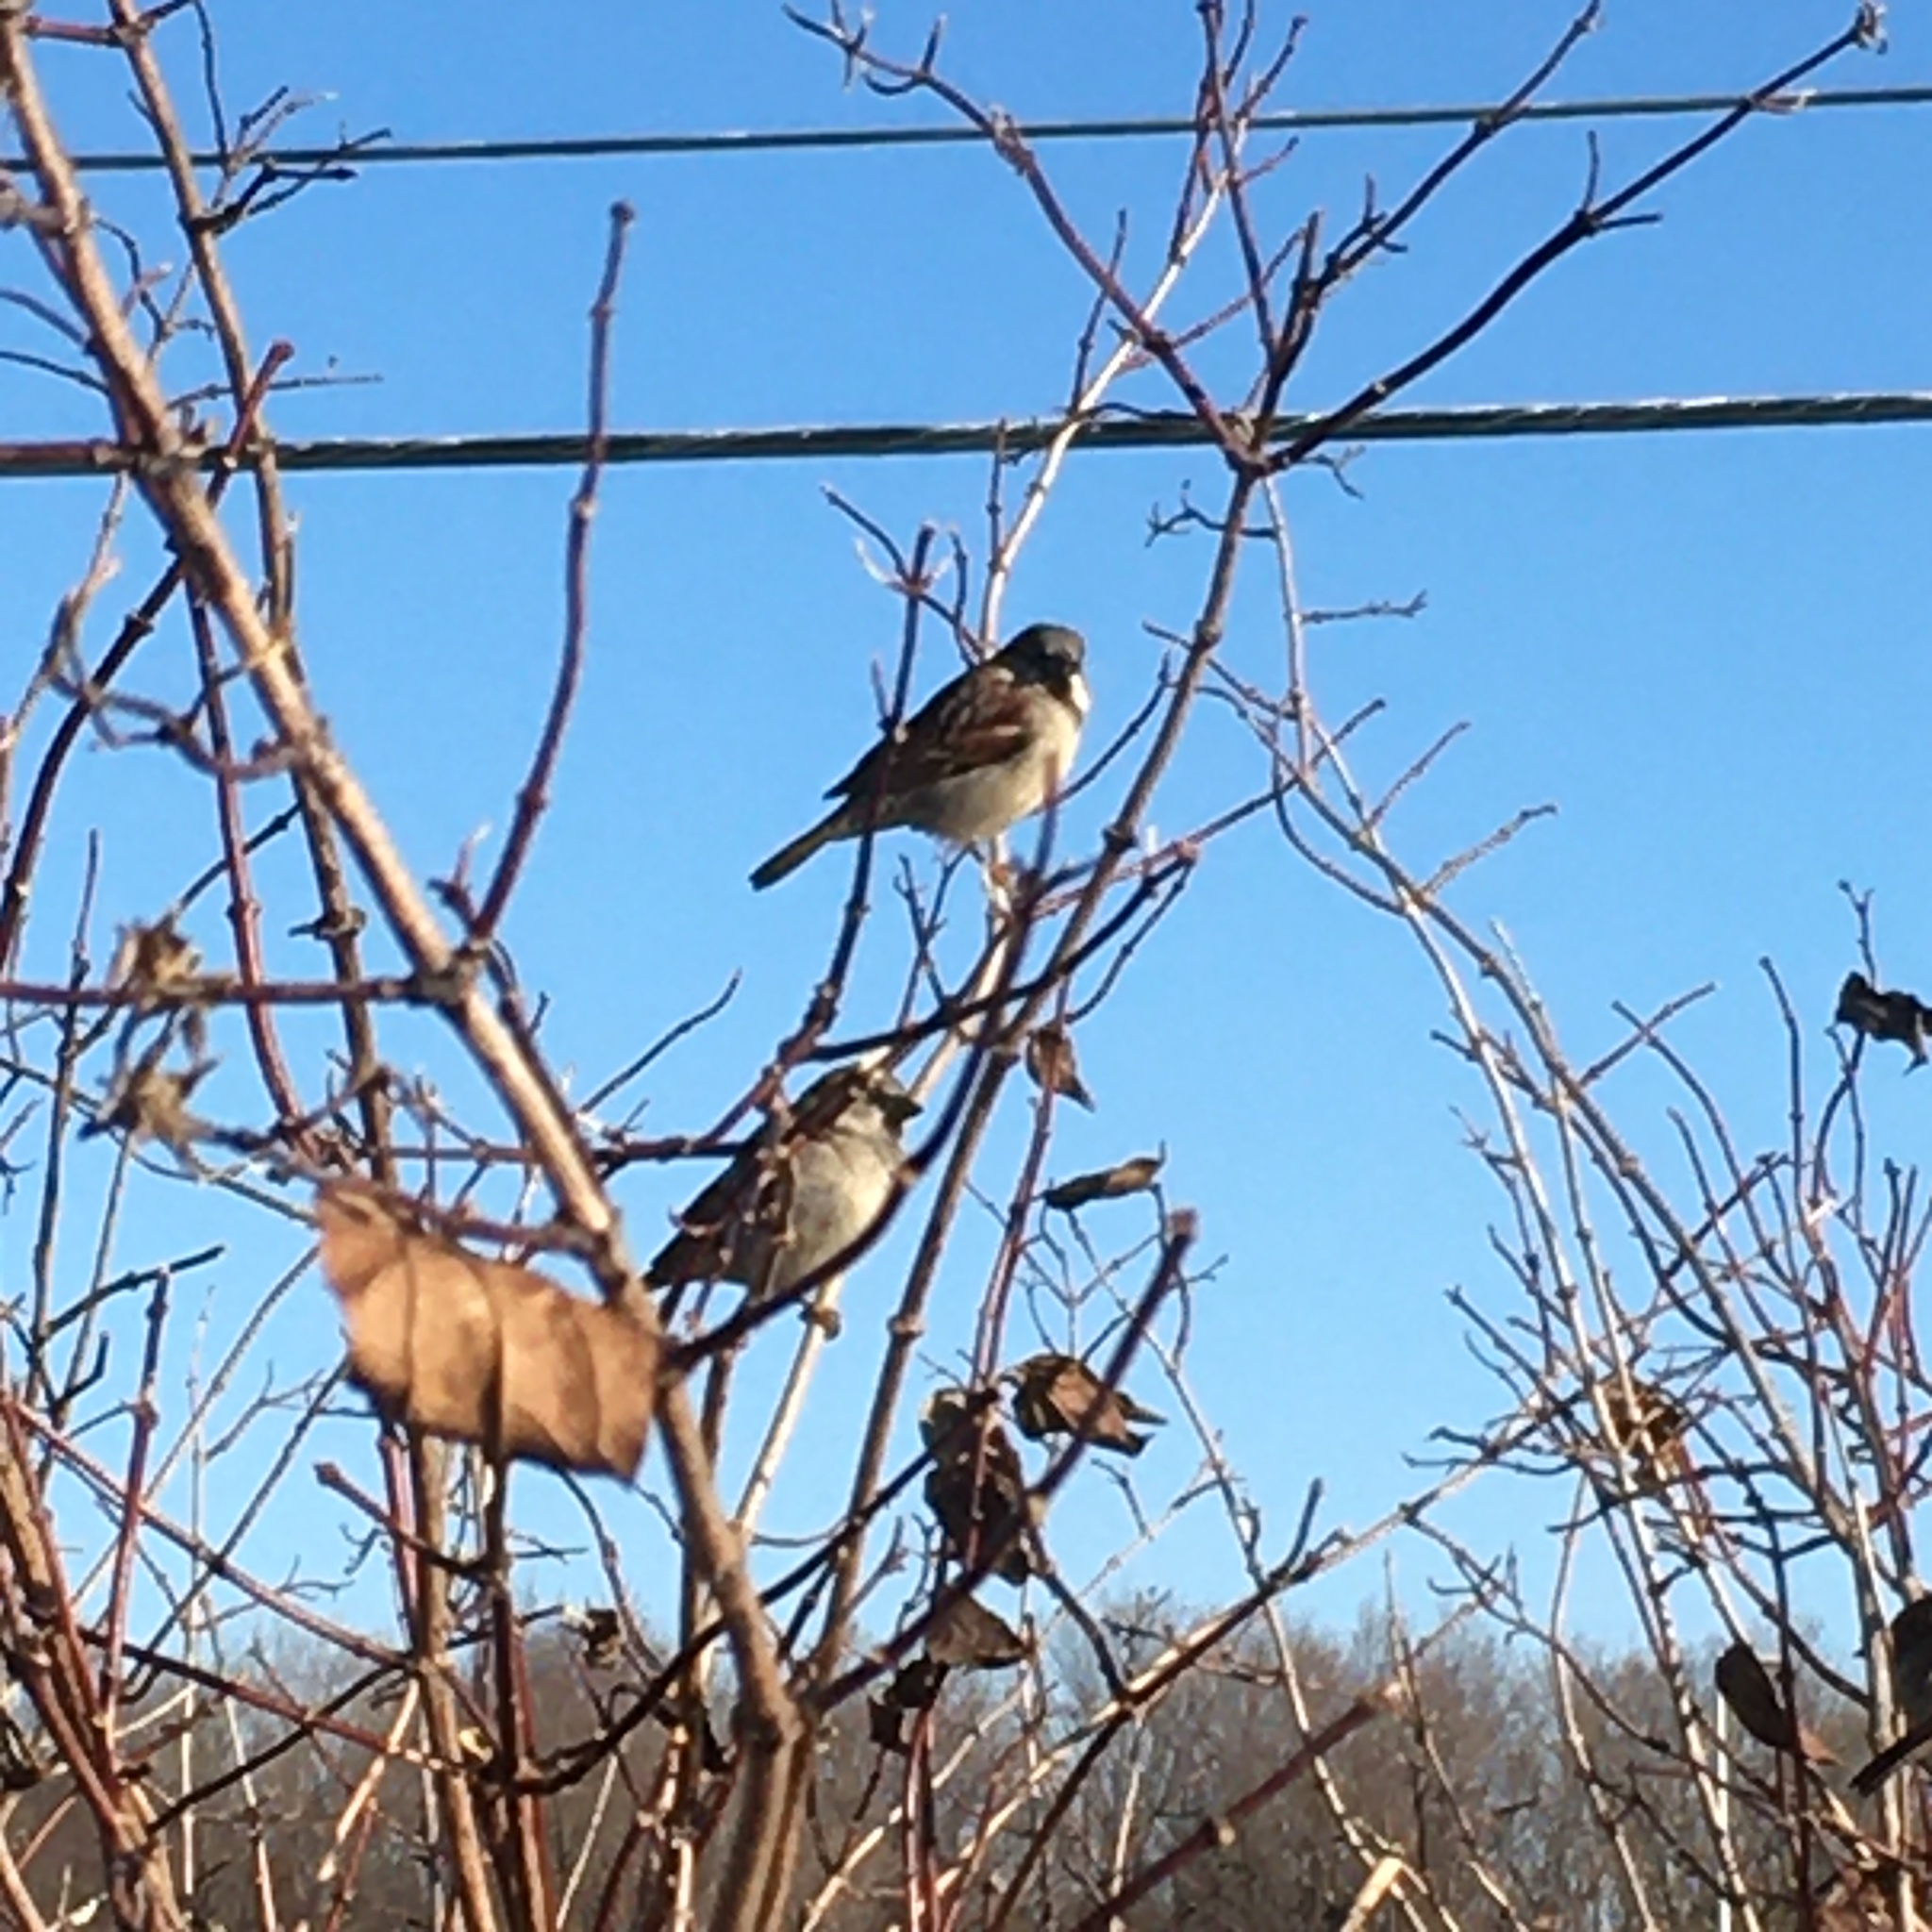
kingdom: Animalia
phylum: Chordata
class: Aves
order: Passeriformes
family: Passeridae
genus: Passer
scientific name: Passer domesticus
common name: House sparrow
